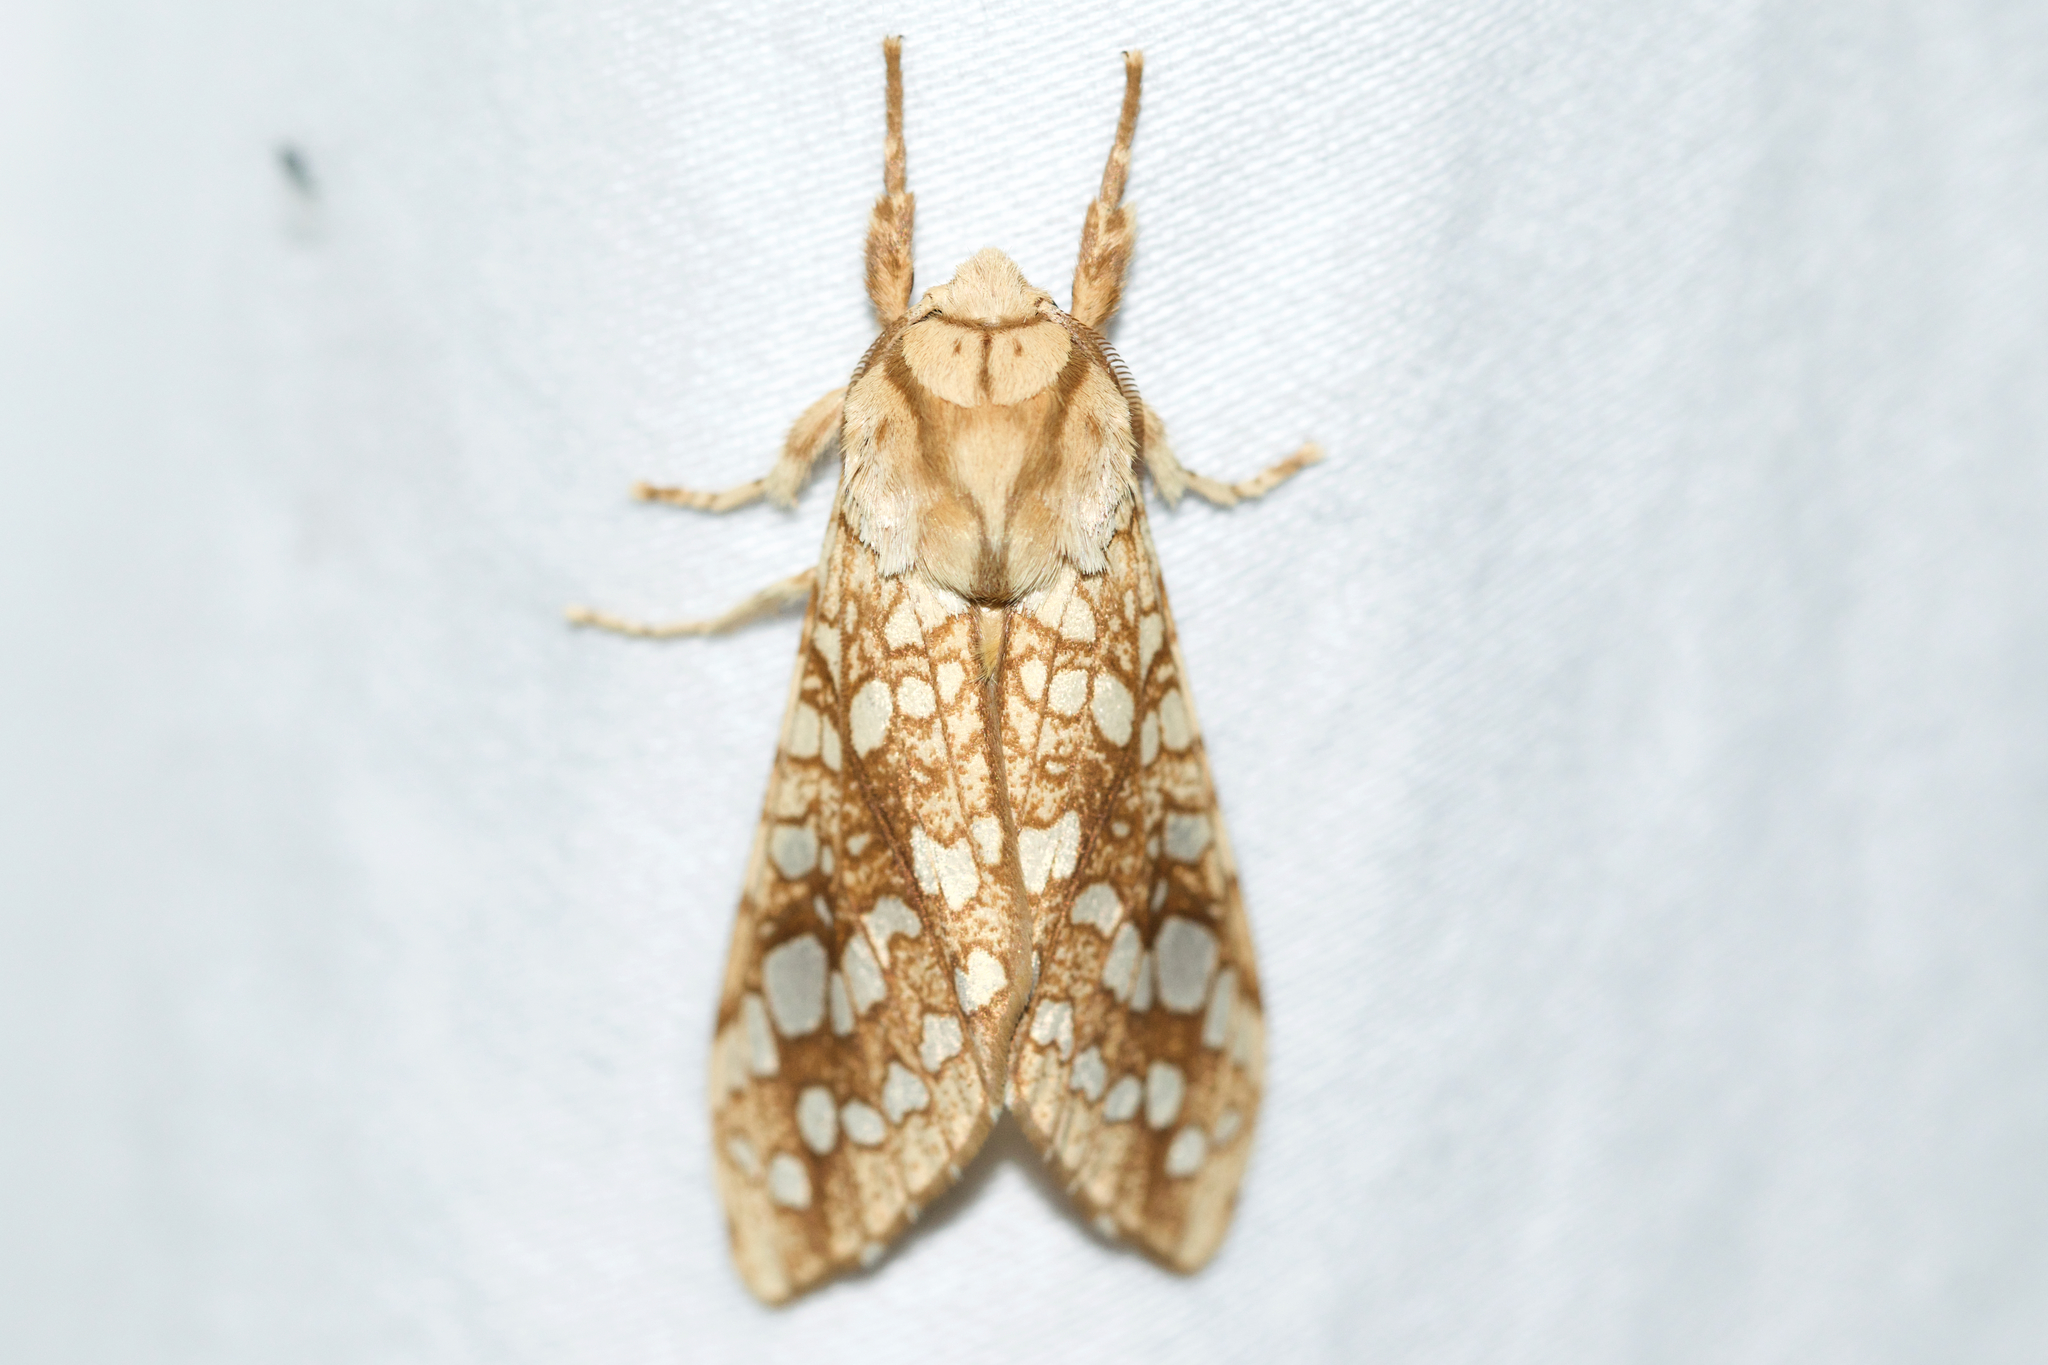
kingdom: Animalia
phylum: Arthropoda
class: Insecta
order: Lepidoptera
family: Erebidae
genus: Lophocampa
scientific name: Lophocampa caryae
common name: Hickory tussock moth
